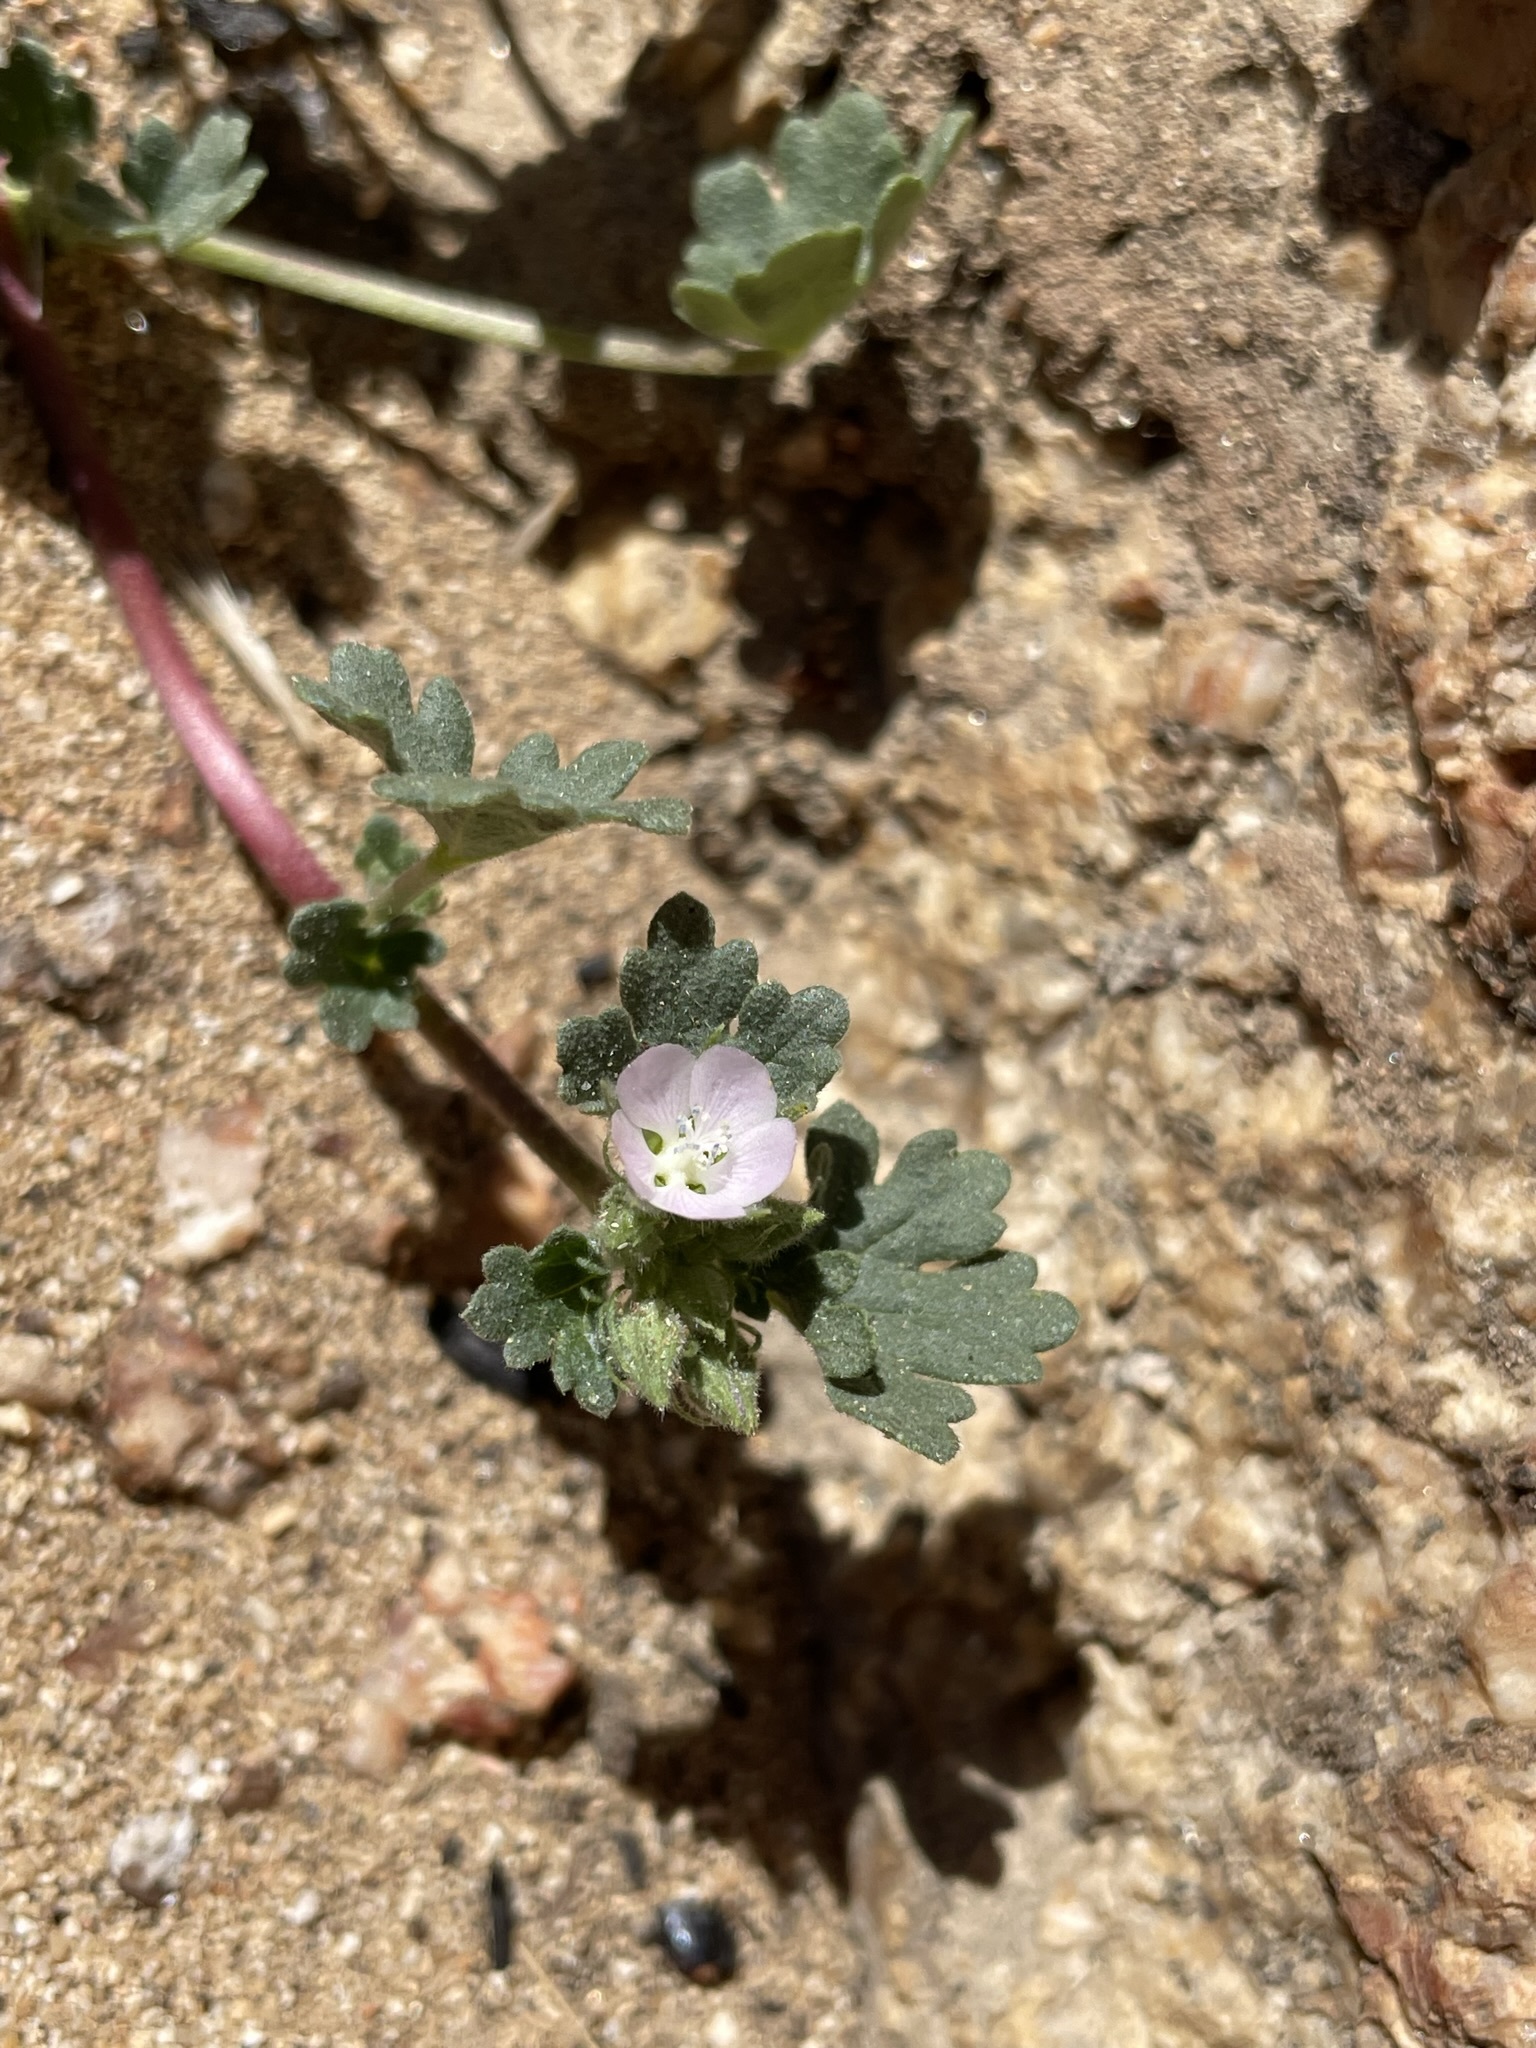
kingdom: Plantae
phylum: Tracheophyta
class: Magnoliopsida
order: Malvales
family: Malvaceae
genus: Eremalche
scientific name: Eremalche exilis
